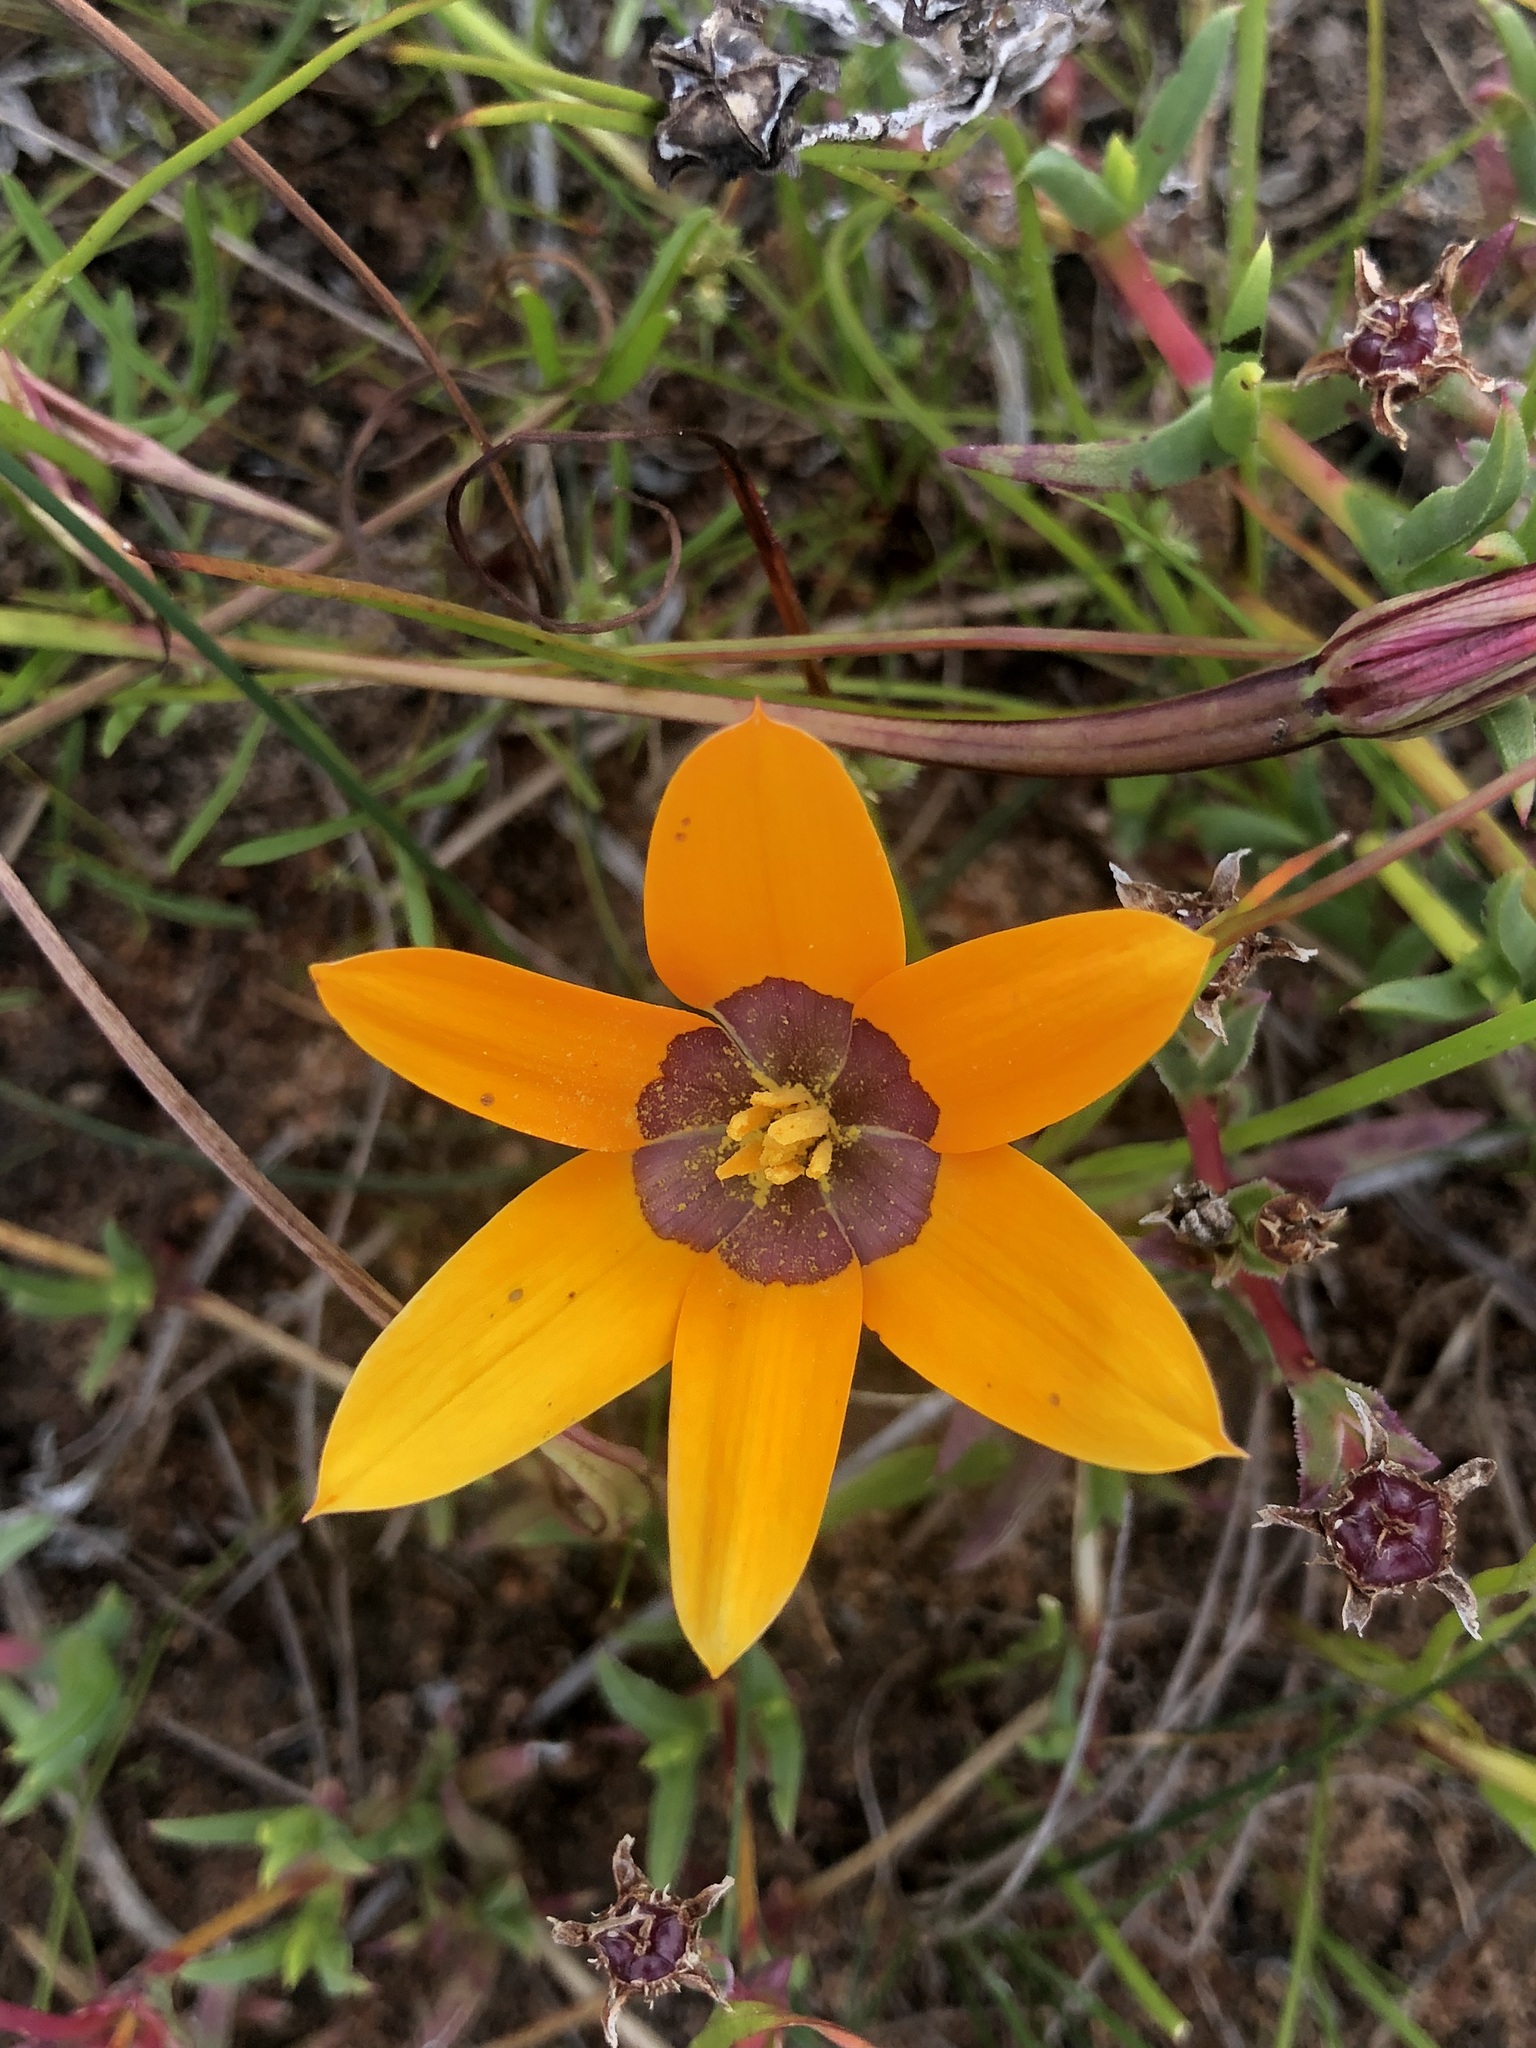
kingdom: Plantae
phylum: Tracheophyta
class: Liliopsida
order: Asparagales
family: Hypoxidaceae
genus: Pauridia
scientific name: Pauridia canaliculata
